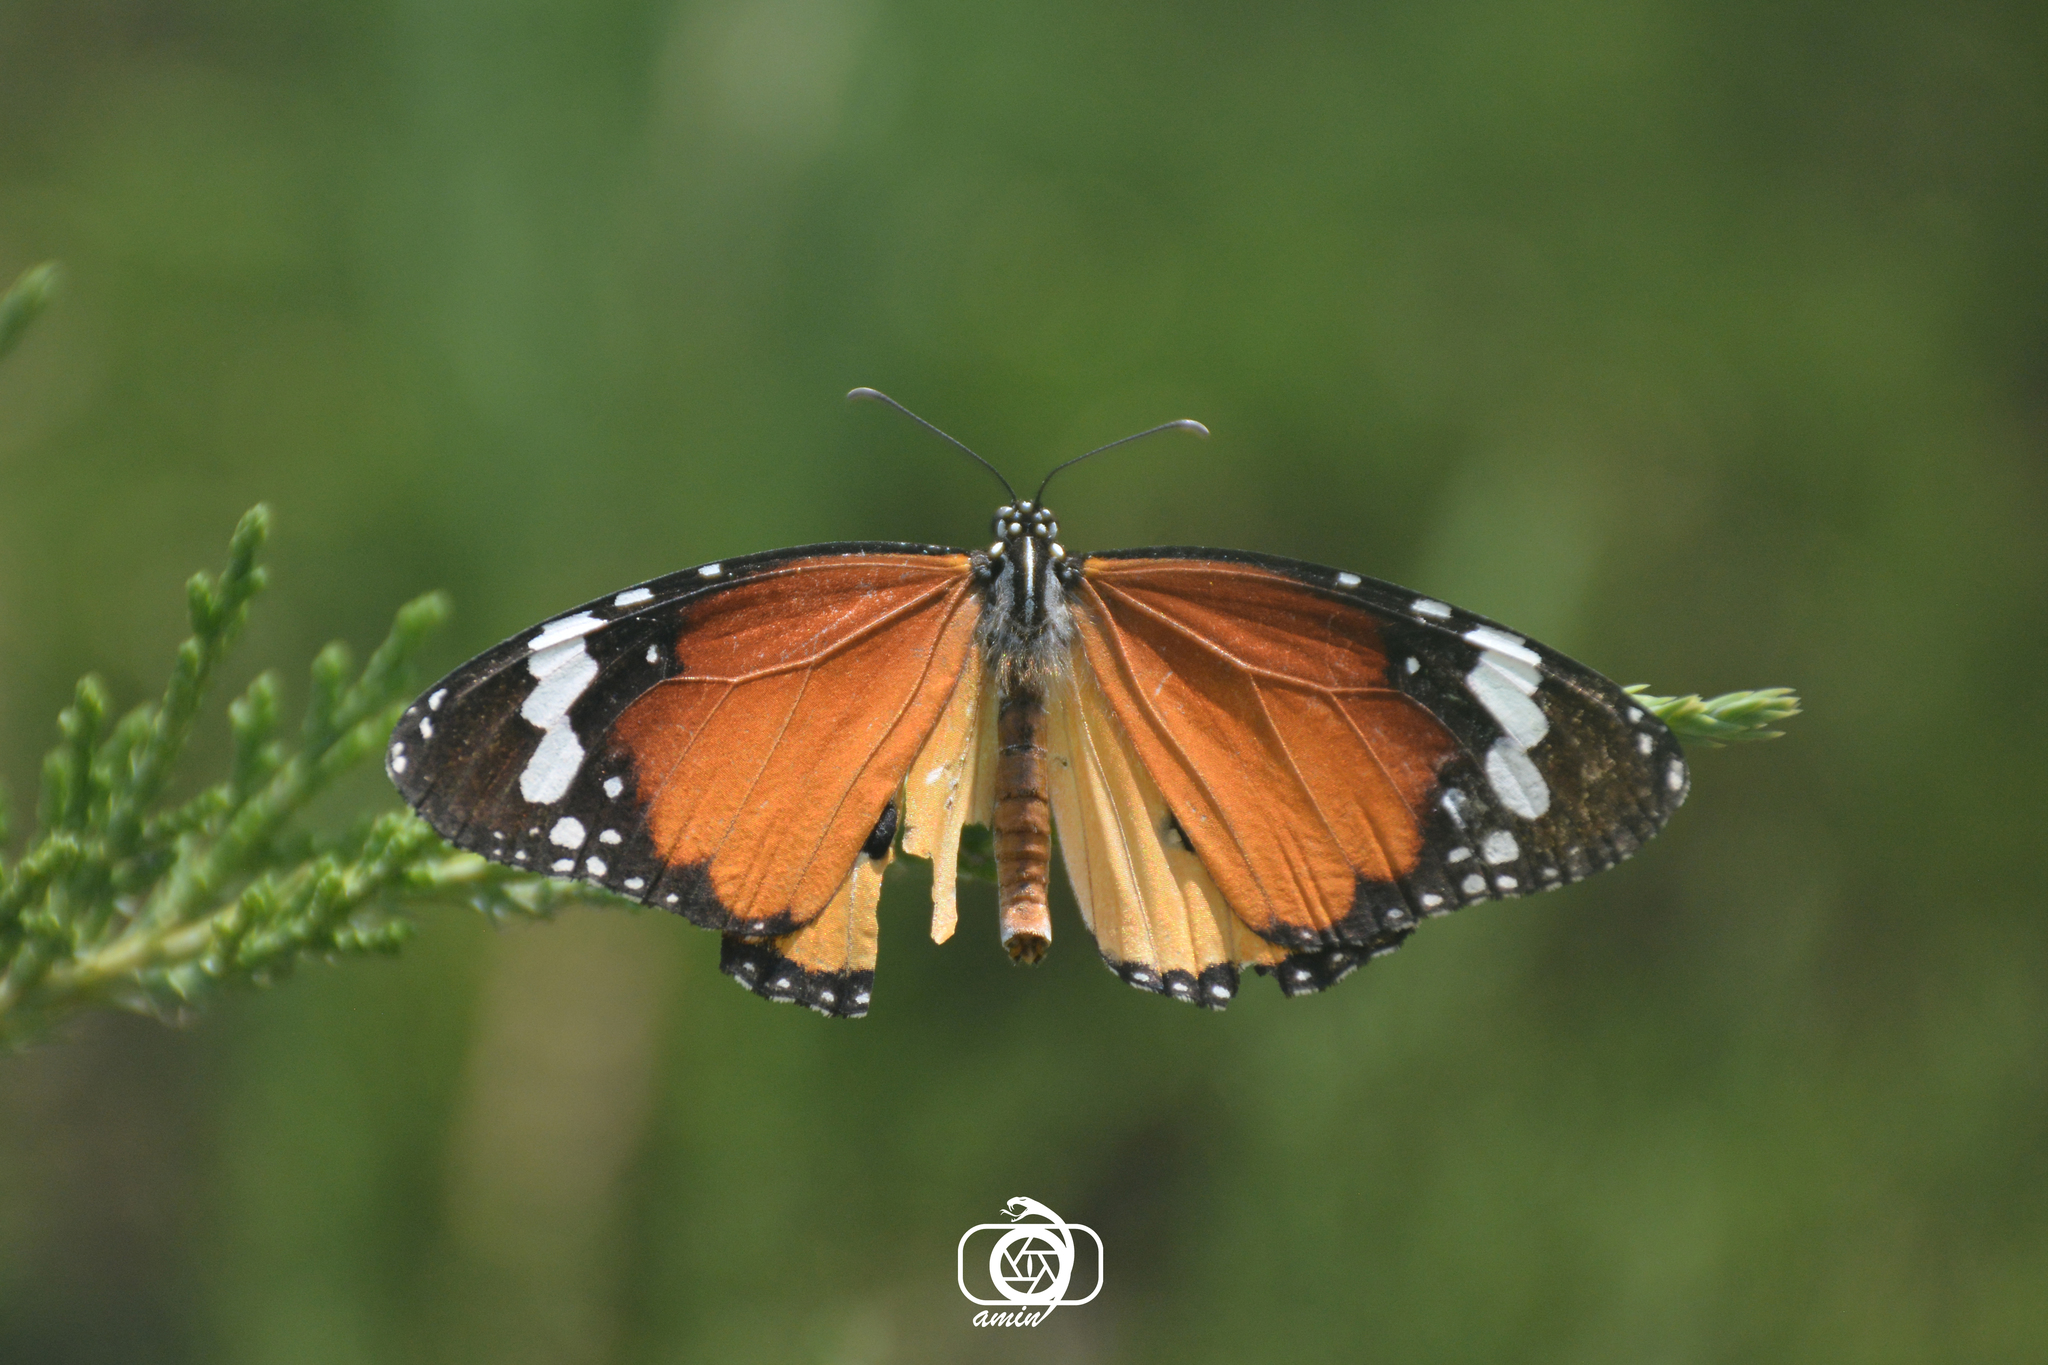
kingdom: Animalia
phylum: Arthropoda
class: Insecta
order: Lepidoptera
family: Nymphalidae
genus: Danaus
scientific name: Danaus chrysippus
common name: Plain tiger
